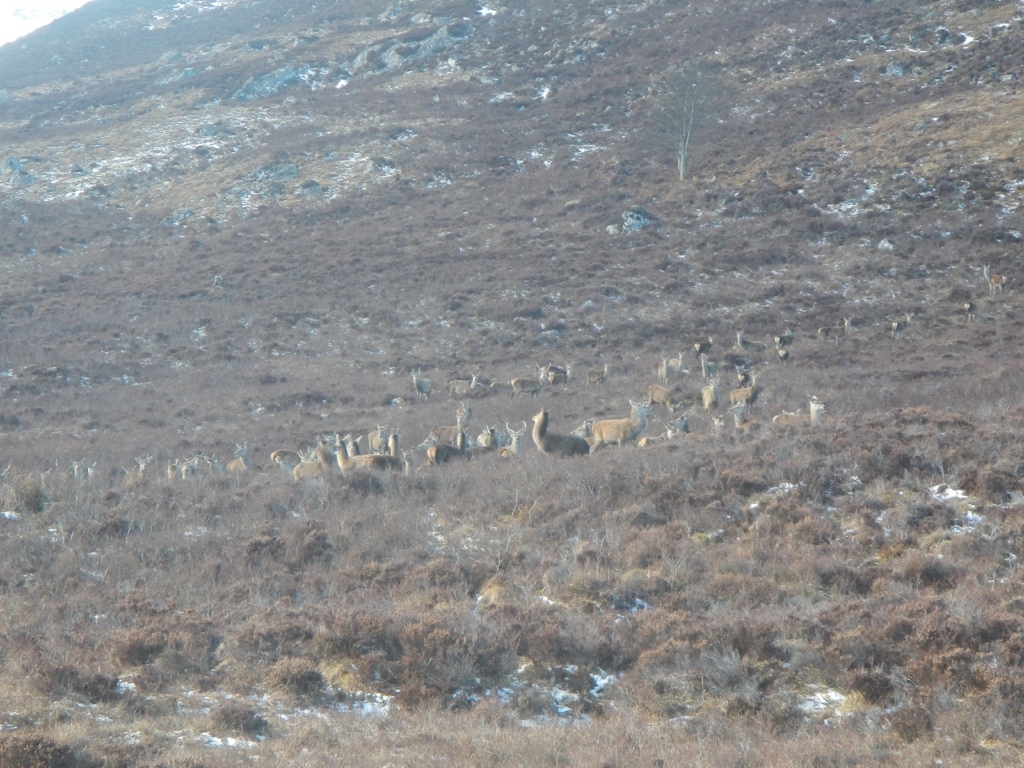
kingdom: Animalia
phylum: Chordata
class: Mammalia
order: Artiodactyla
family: Cervidae
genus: Cervus
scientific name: Cervus elaphus
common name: Red deer
